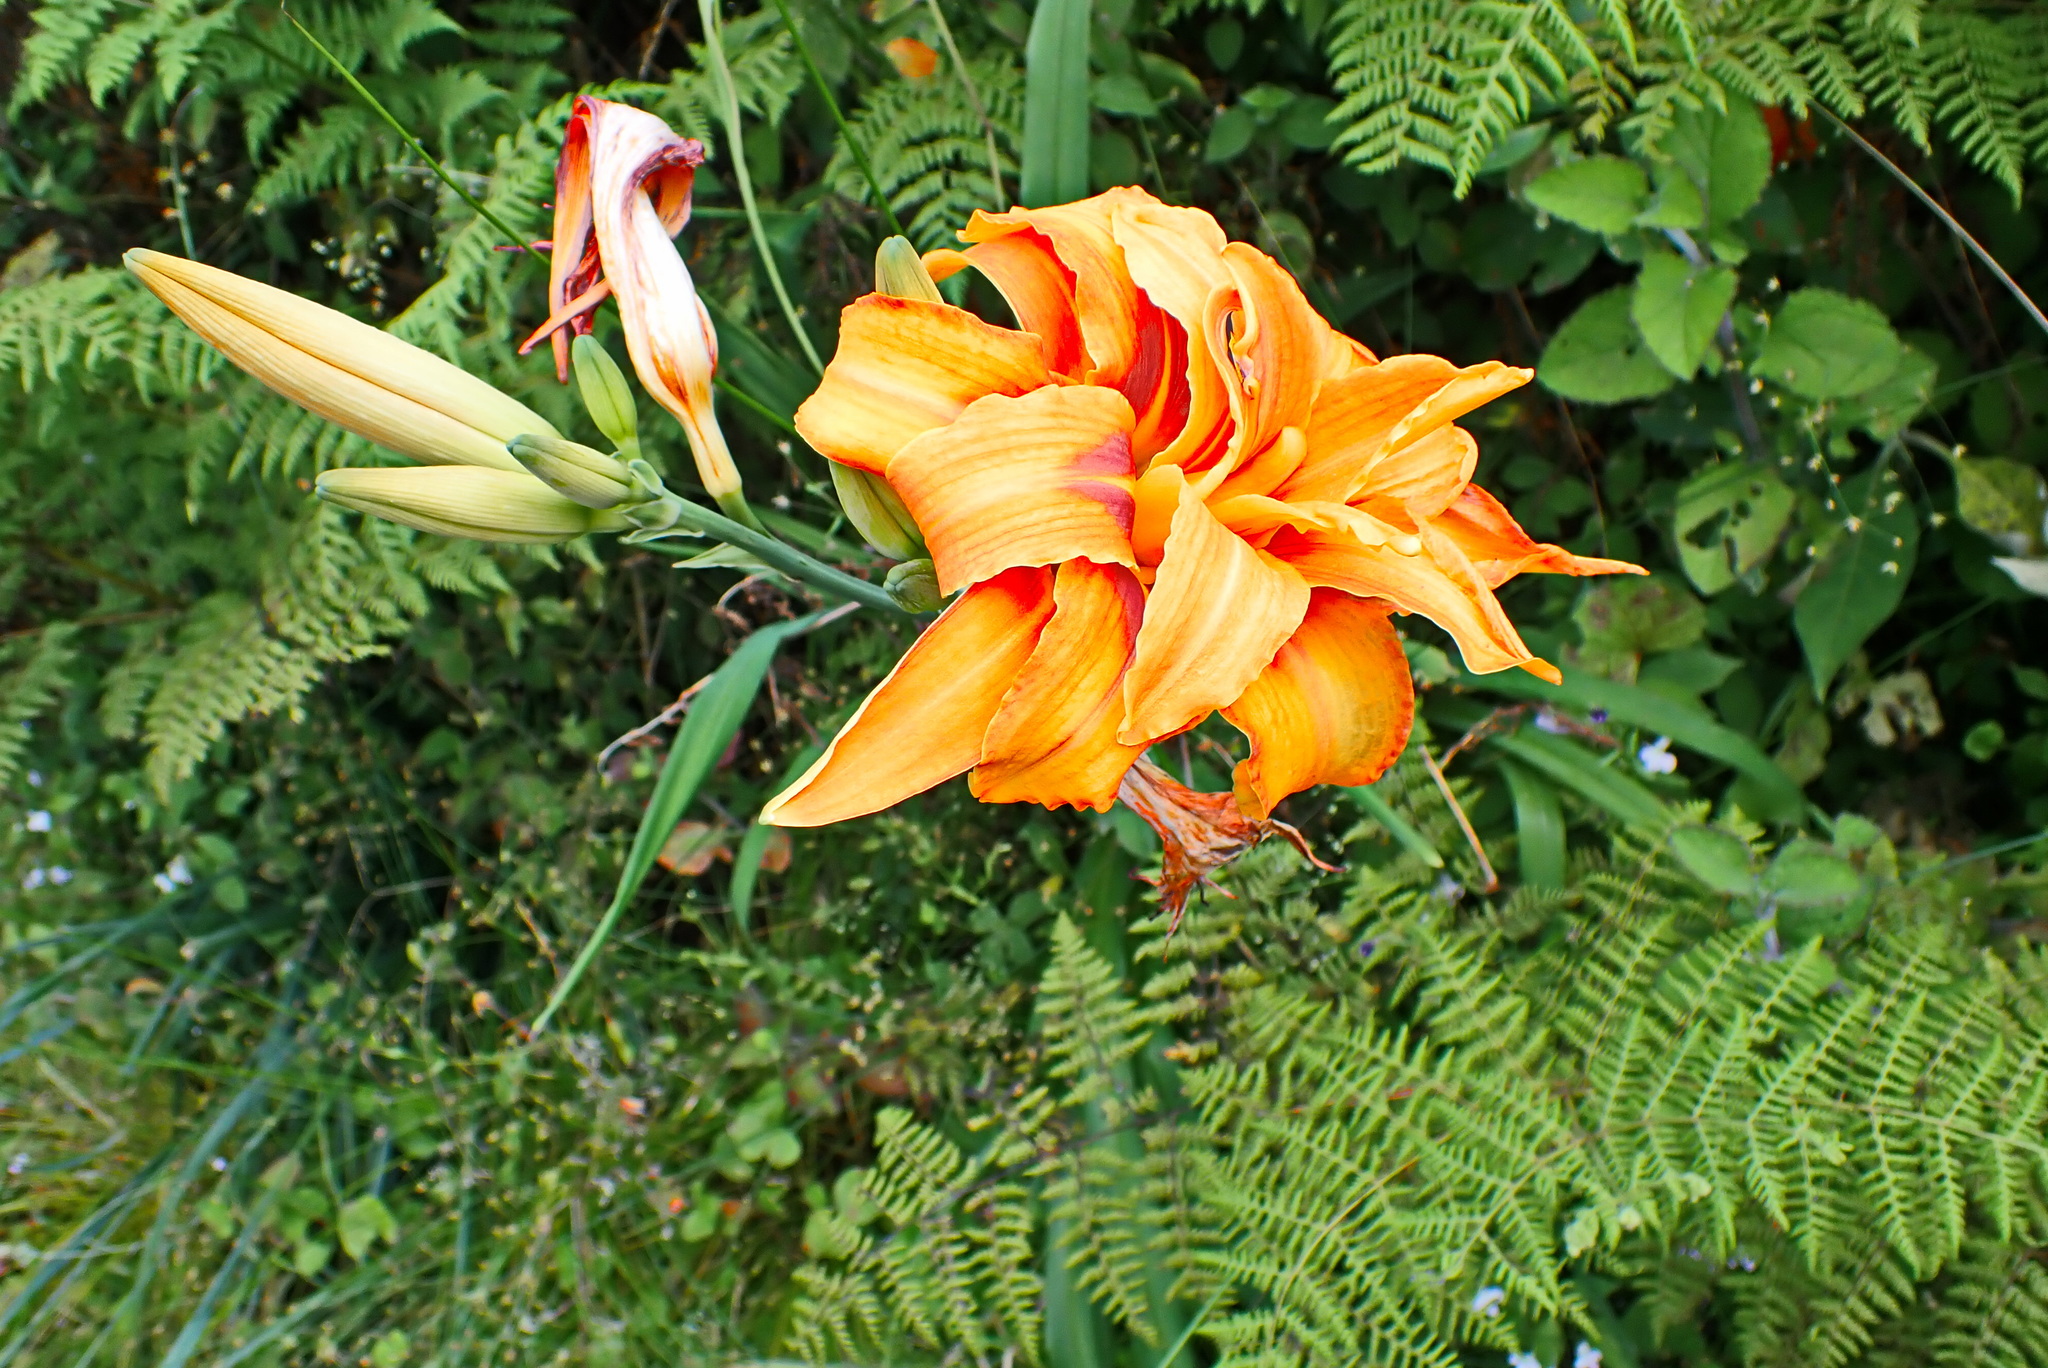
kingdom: Plantae
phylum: Tracheophyta
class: Liliopsida
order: Asparagales
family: Asphodelaceae
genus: Hemerocallis
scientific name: Hemerocallis fulva
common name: Orange day-lily
